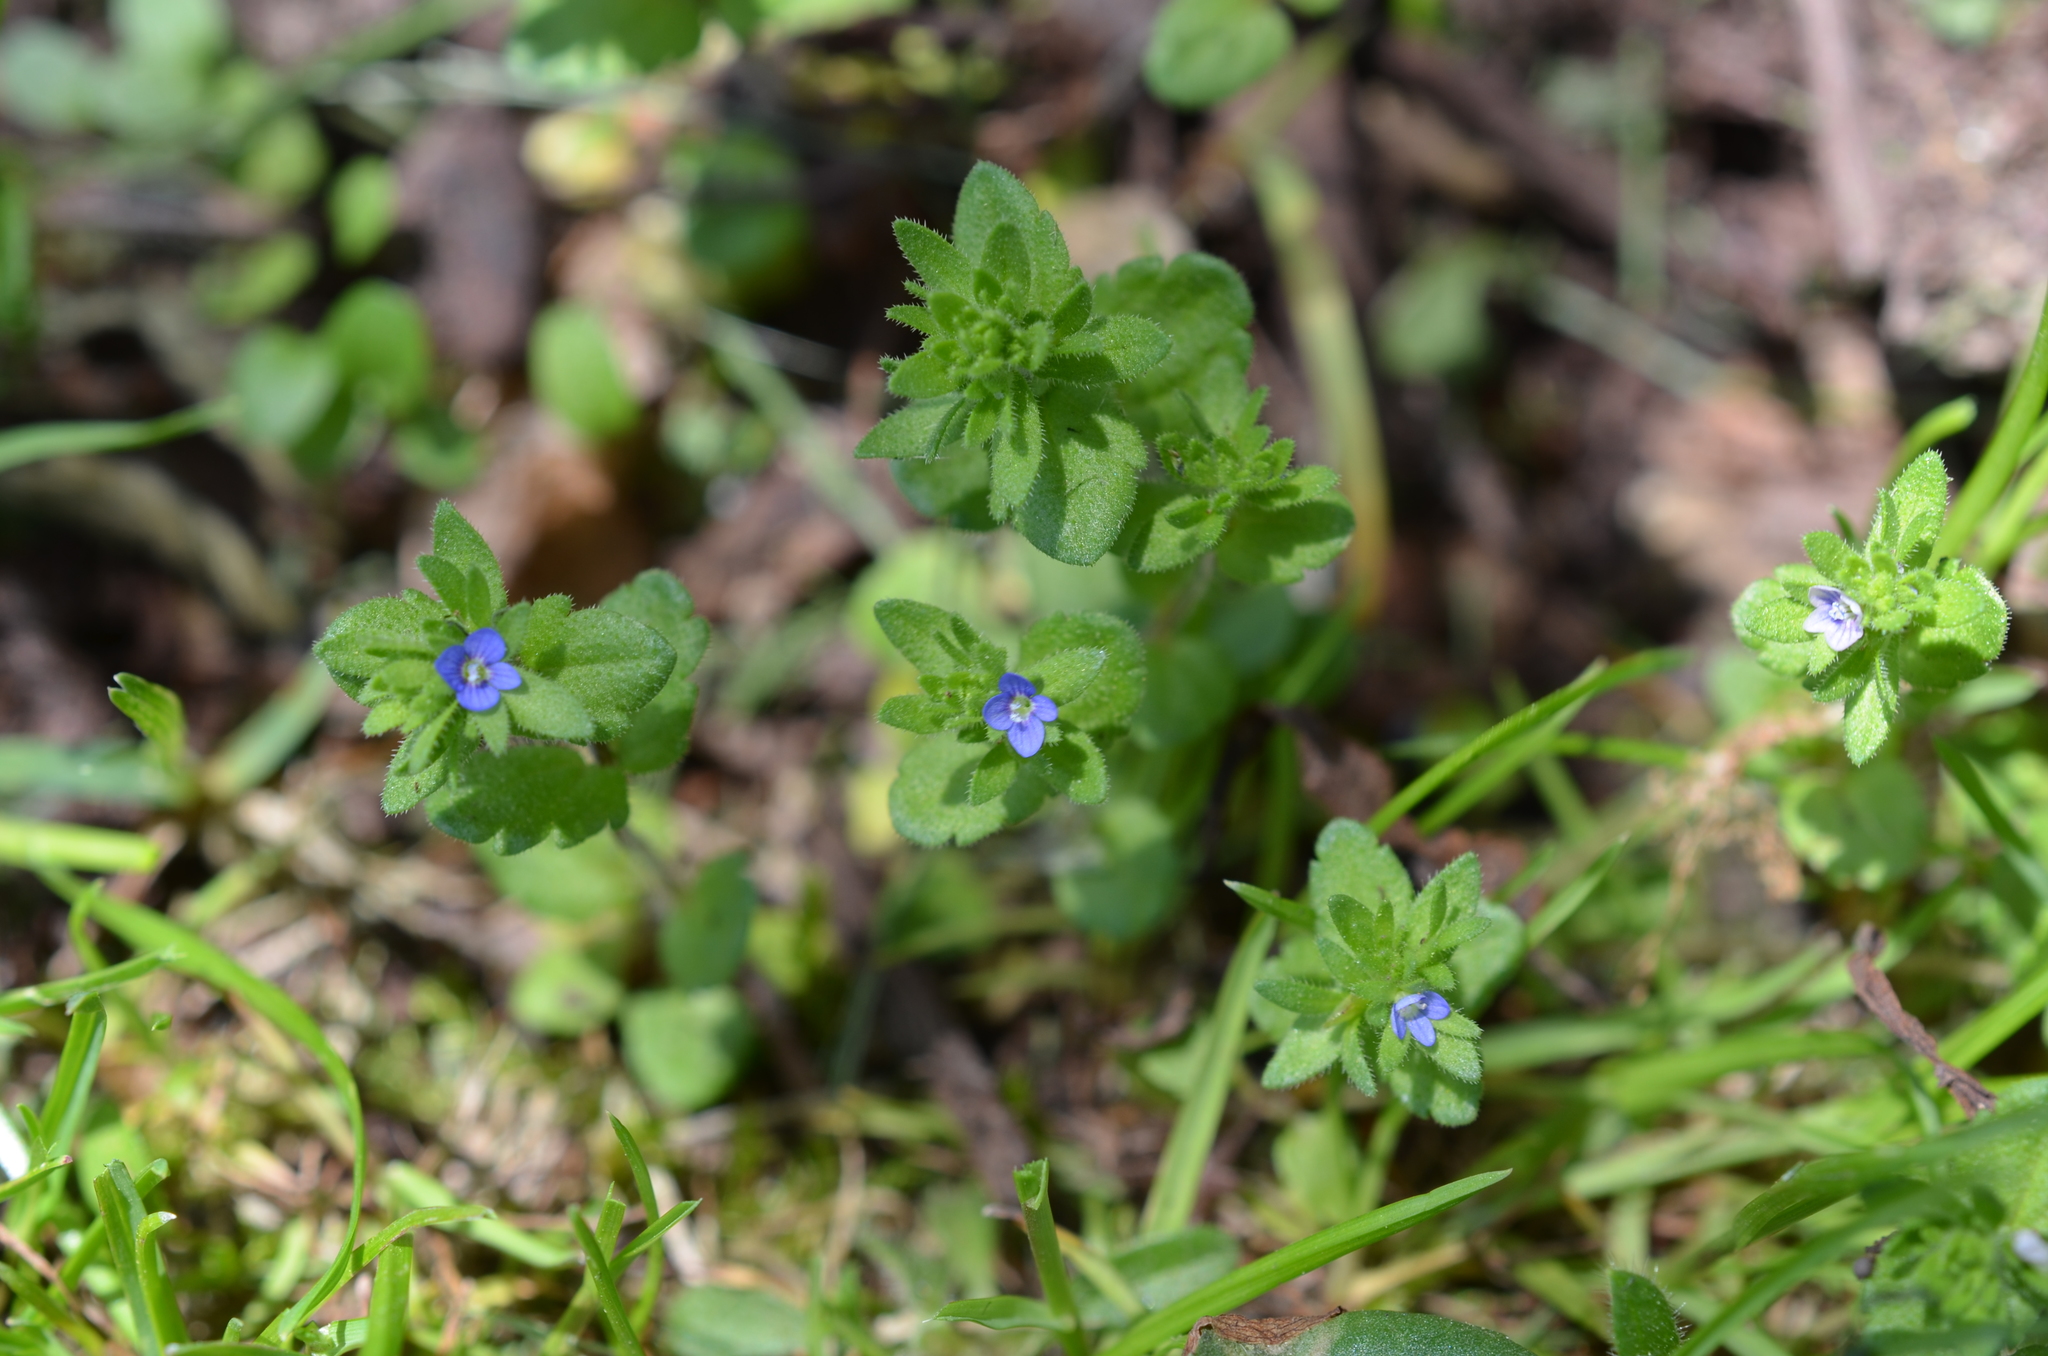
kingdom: Plantae
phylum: Tracheophyta
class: Magnoliopsida
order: Lamiales
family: Plantaginaceae
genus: Veronica
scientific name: Veronica arvensis
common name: Corn speedwell
